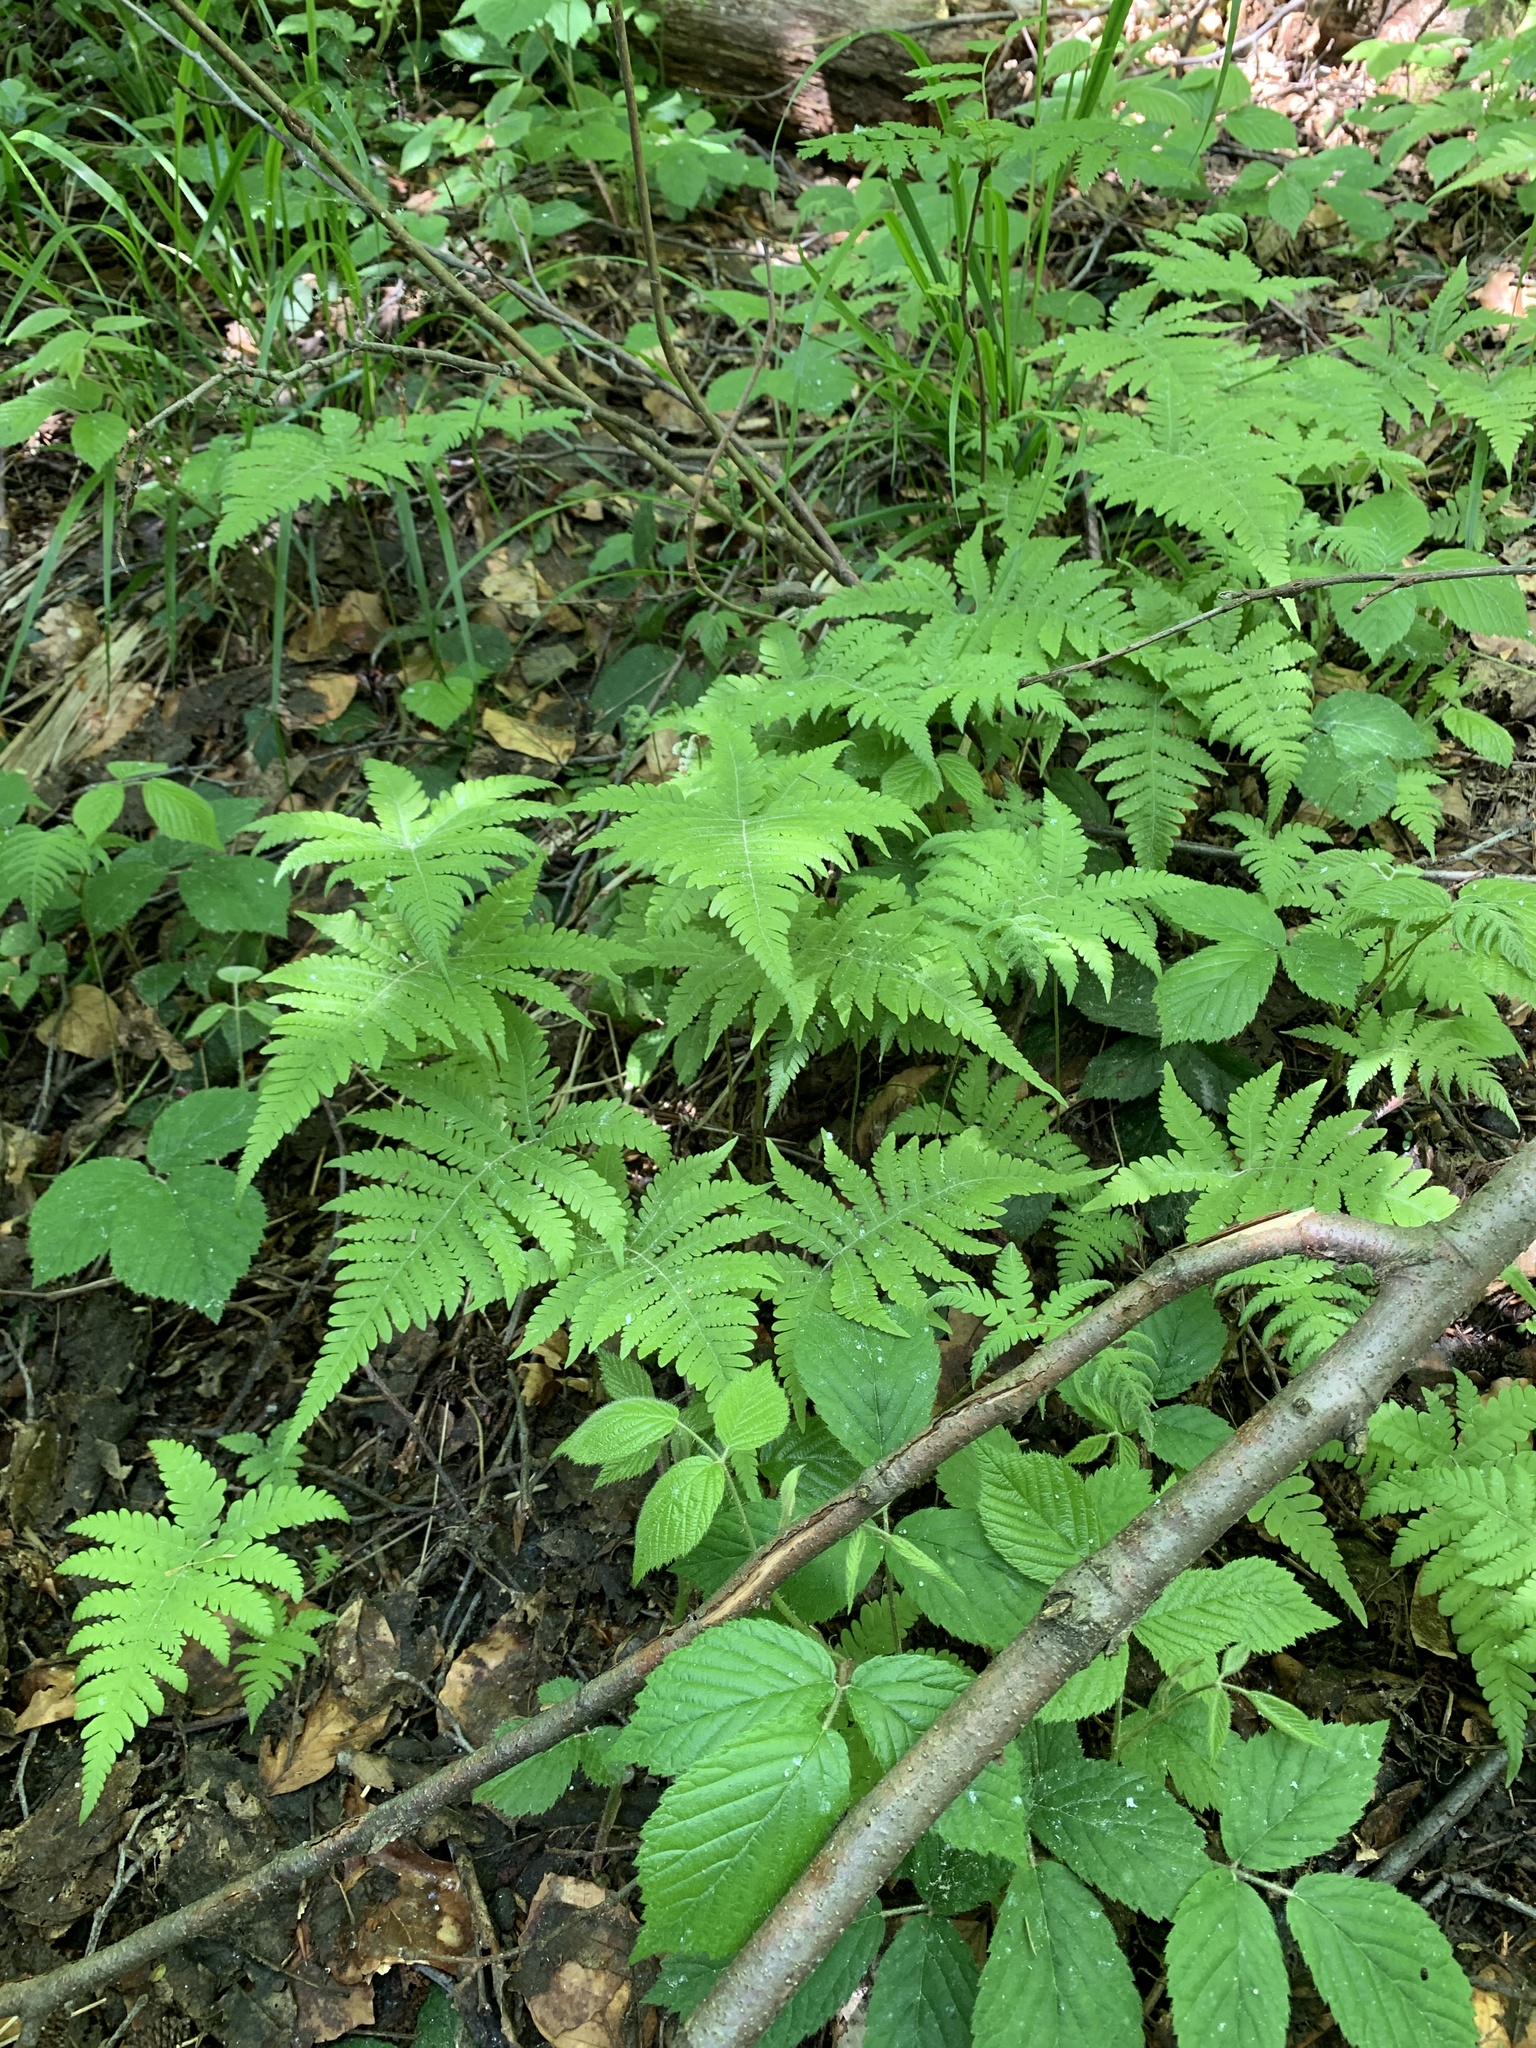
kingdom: Plantae
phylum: Tracheophyta
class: Polypodiopsida
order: Polypodiales
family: Thelypteridaceae
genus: Phegopteris
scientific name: Phegopteris connectilis
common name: Beech fern
